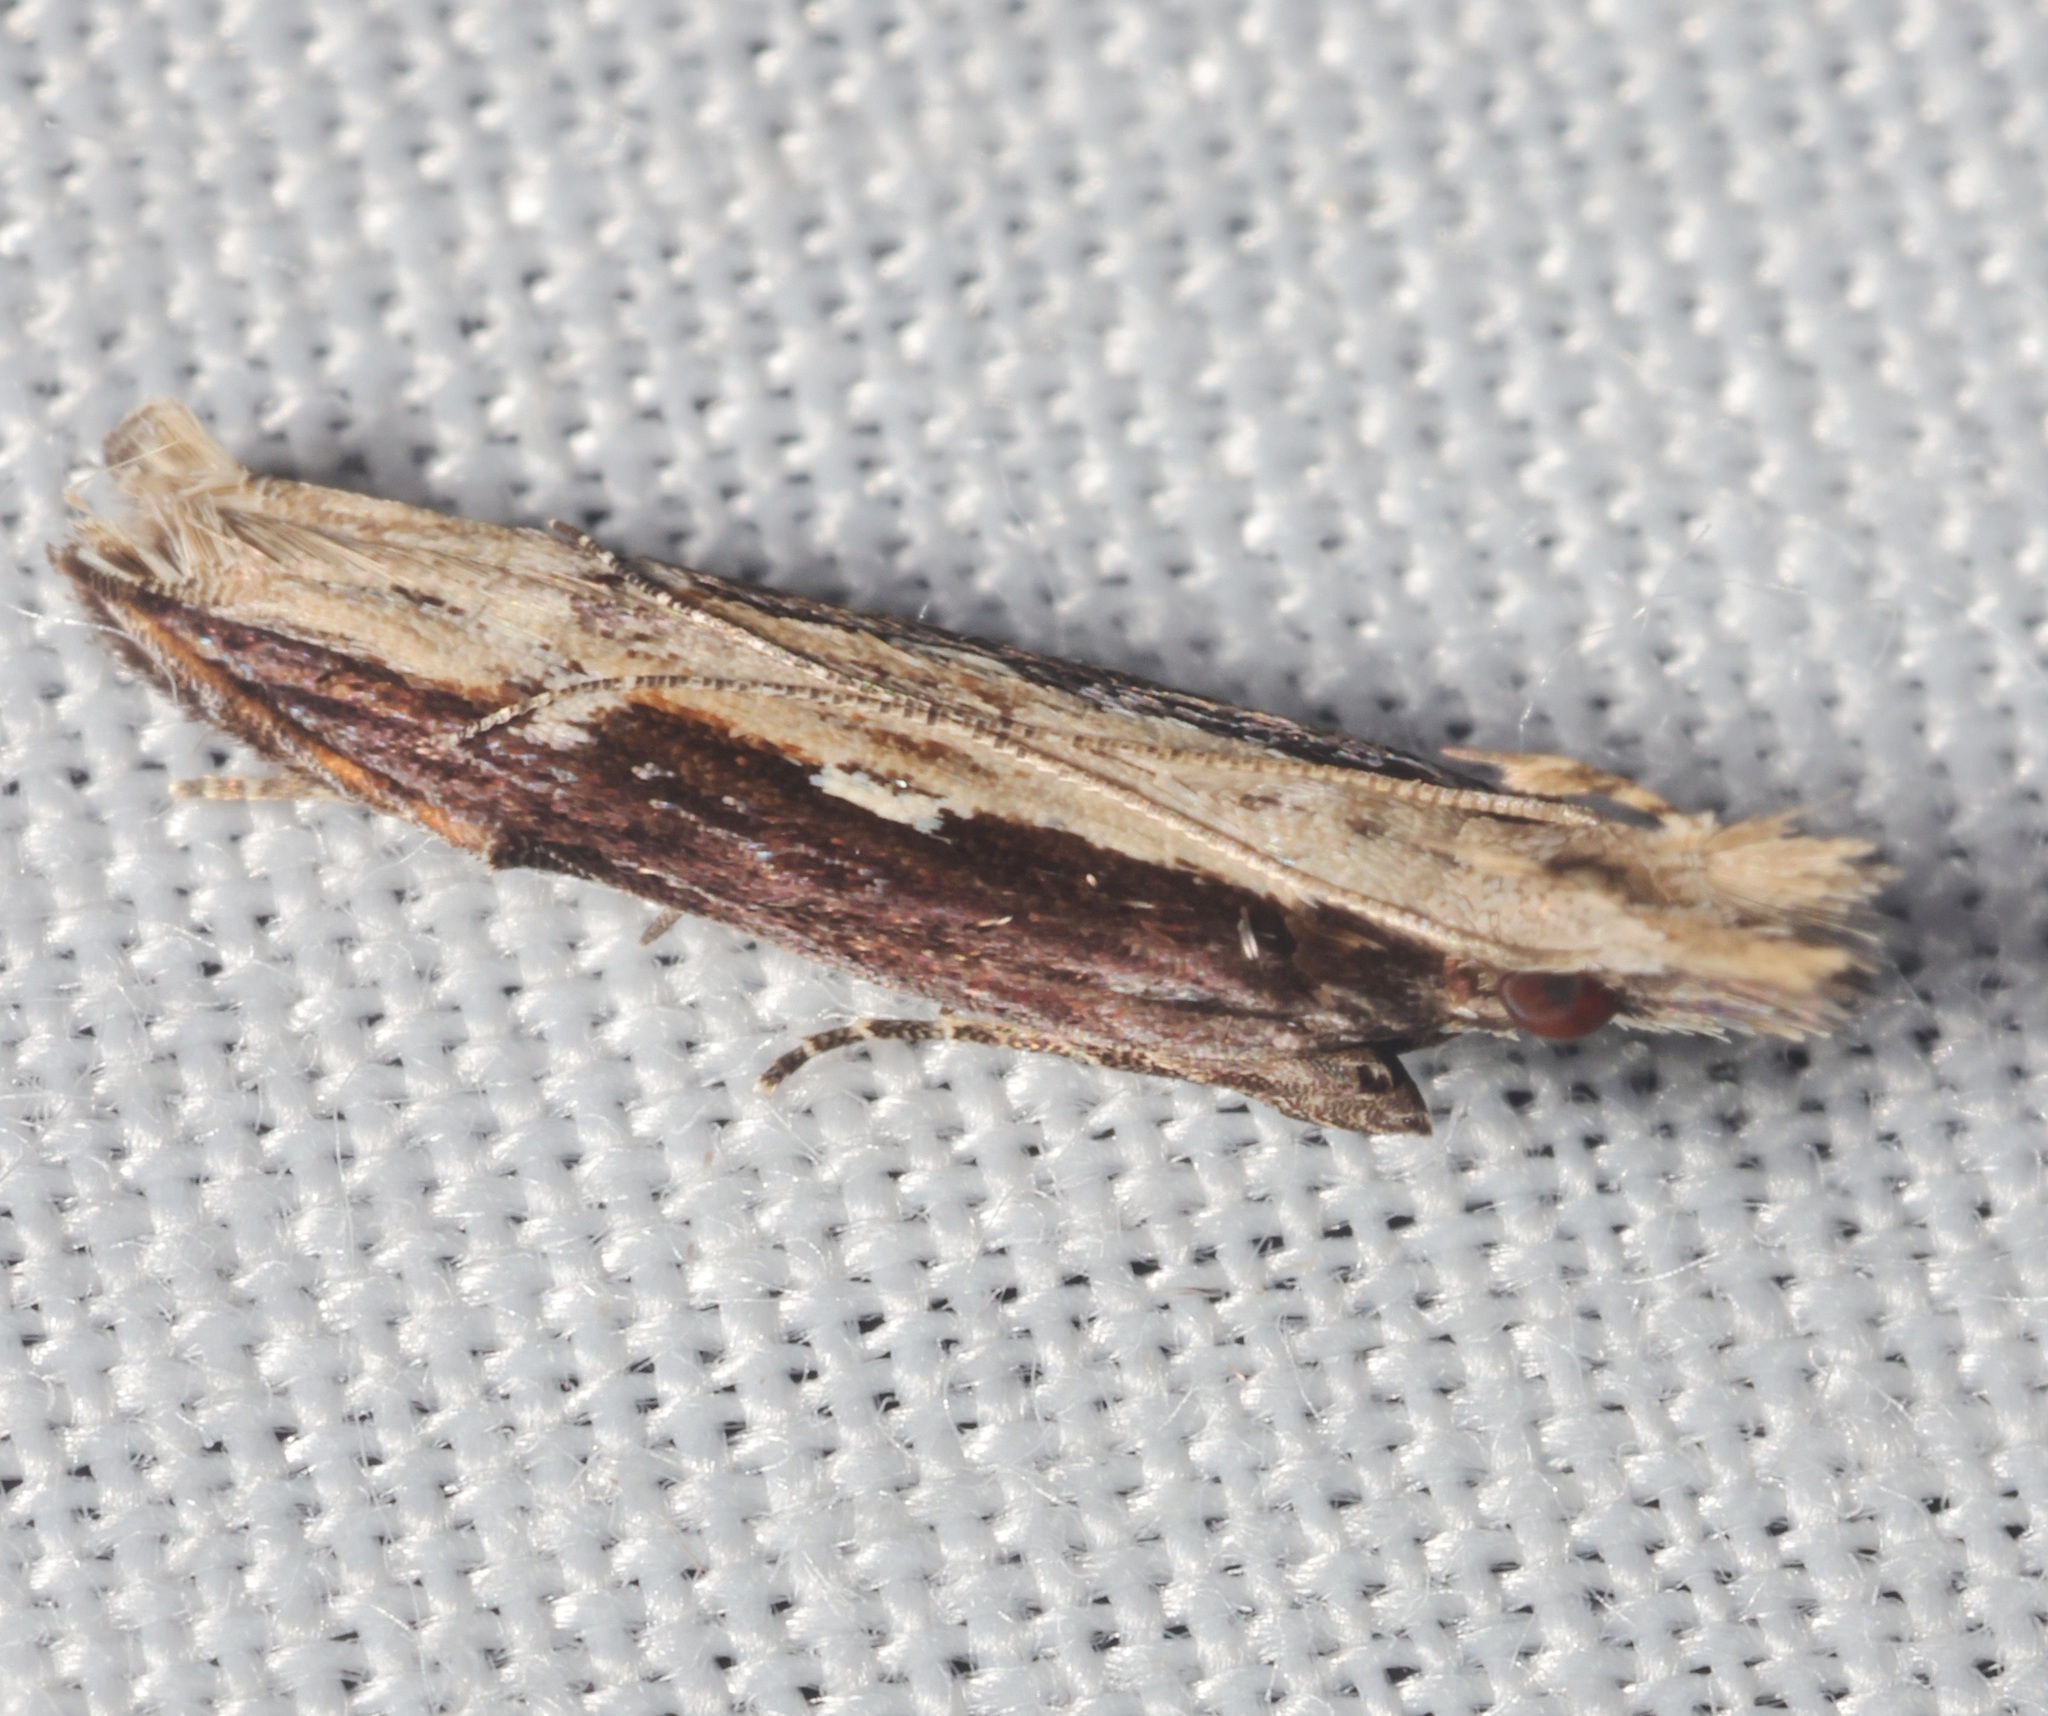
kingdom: Animalia
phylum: Arthropoda
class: Insecta
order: Lepidoptera
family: Gelechiidae
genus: Hypatima
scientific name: Hypatima spathota
